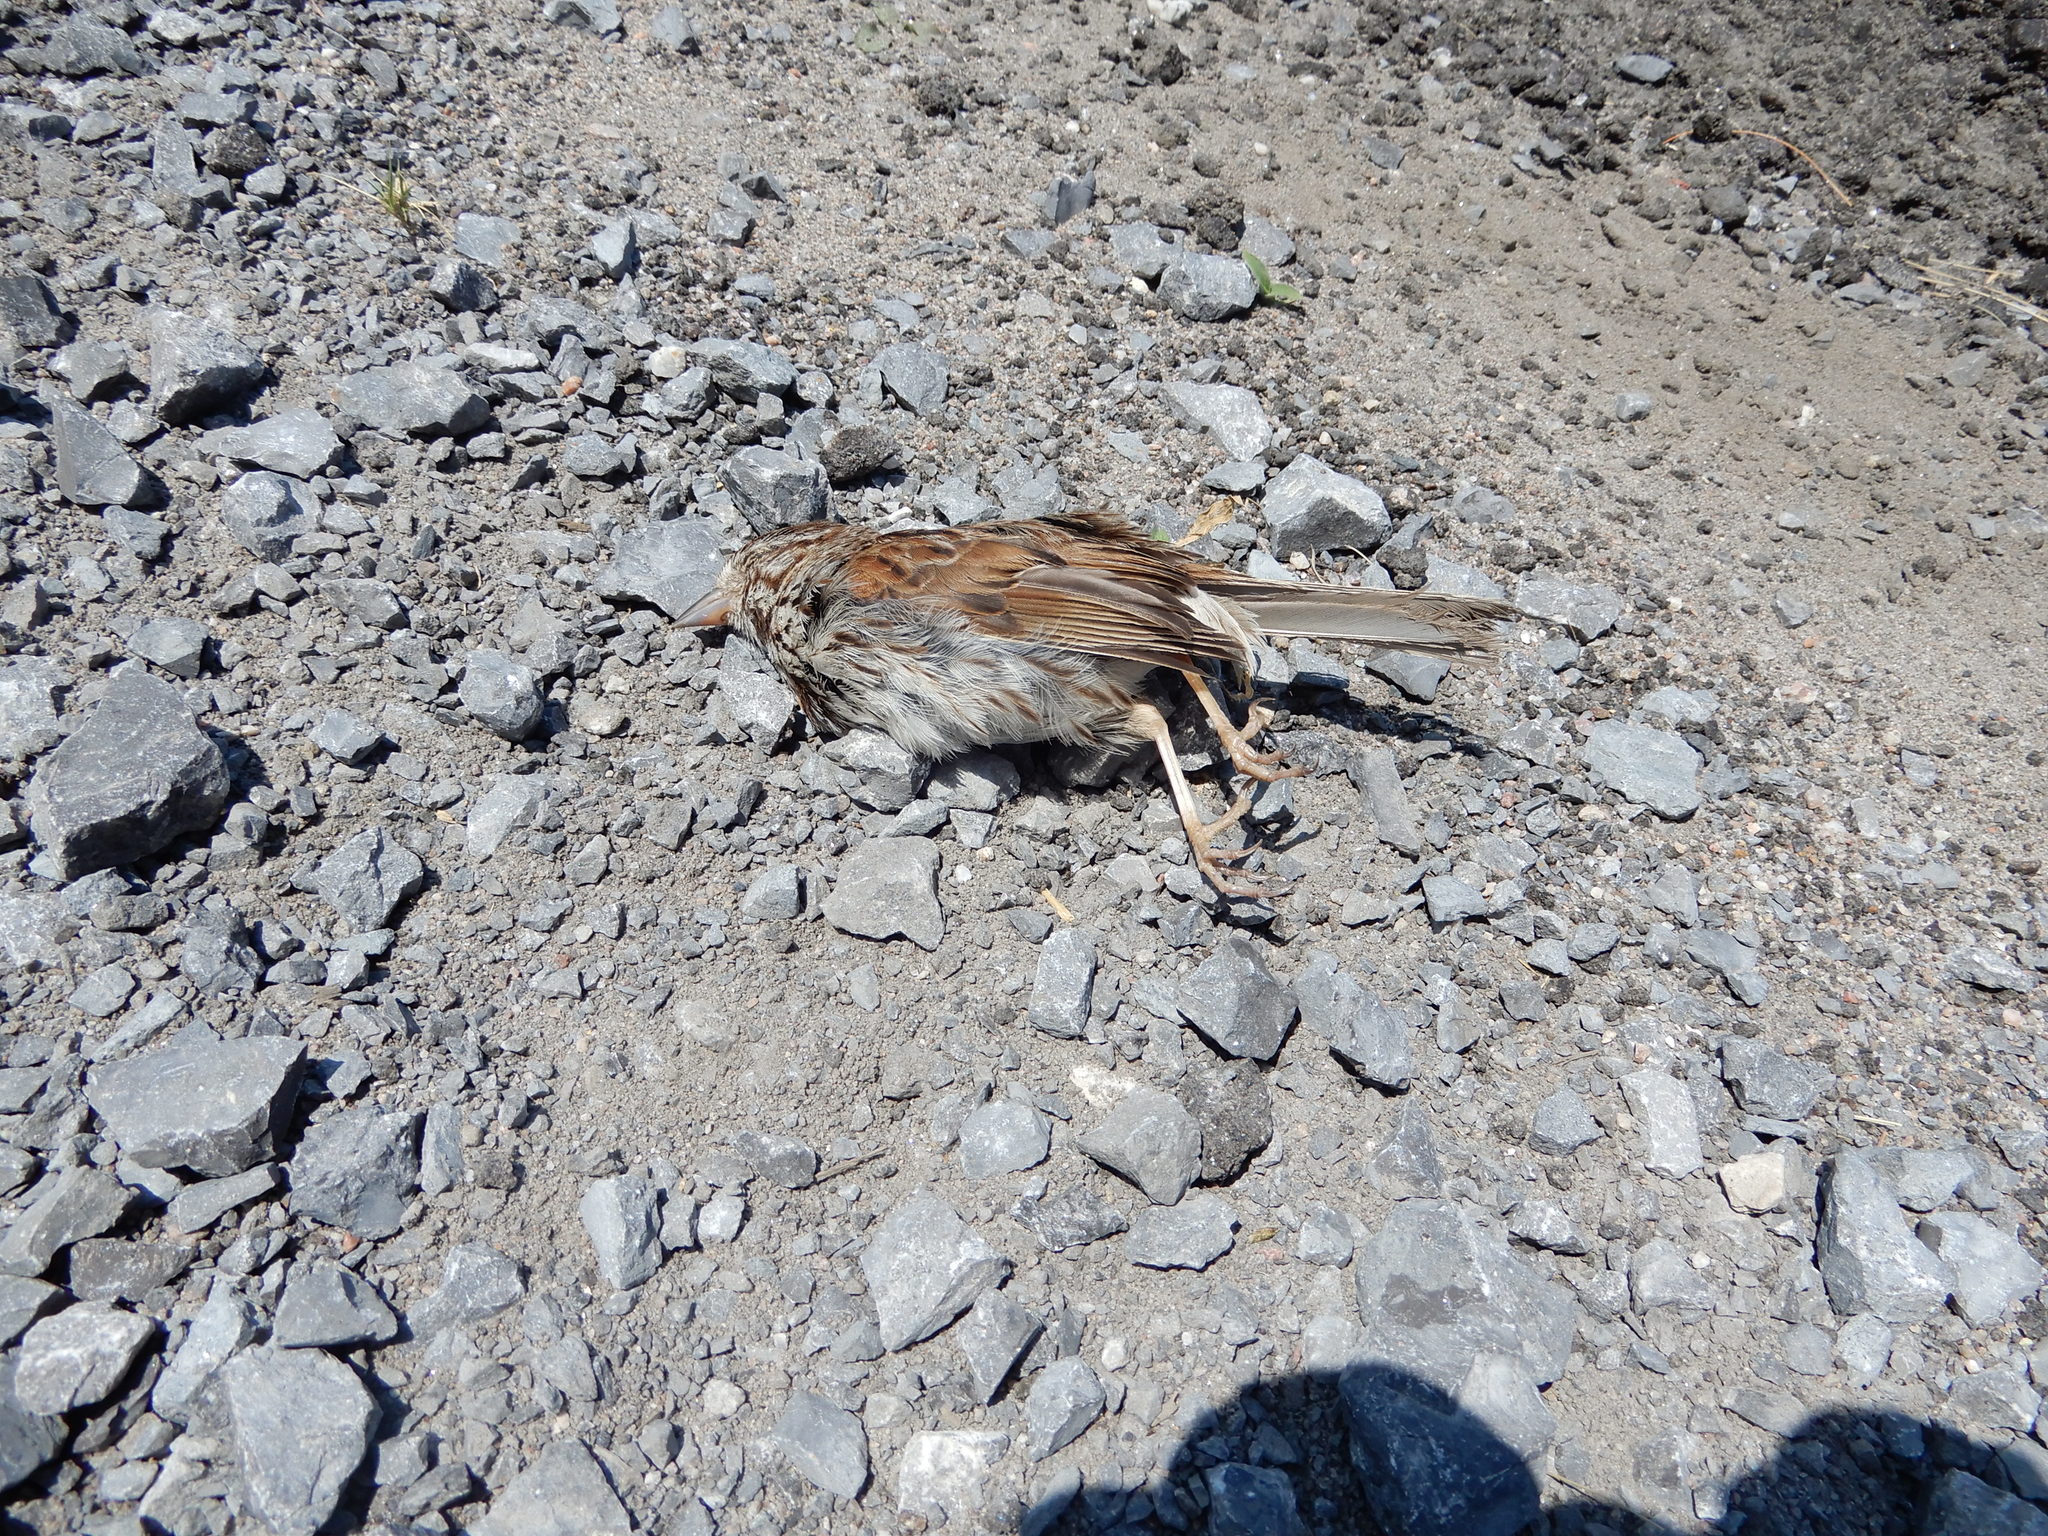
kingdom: Animalia
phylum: Chordata
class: Aves
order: Passeriformes
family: Passerellidae
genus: Melospiza
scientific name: Melospiza melodia
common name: Song sparrow
